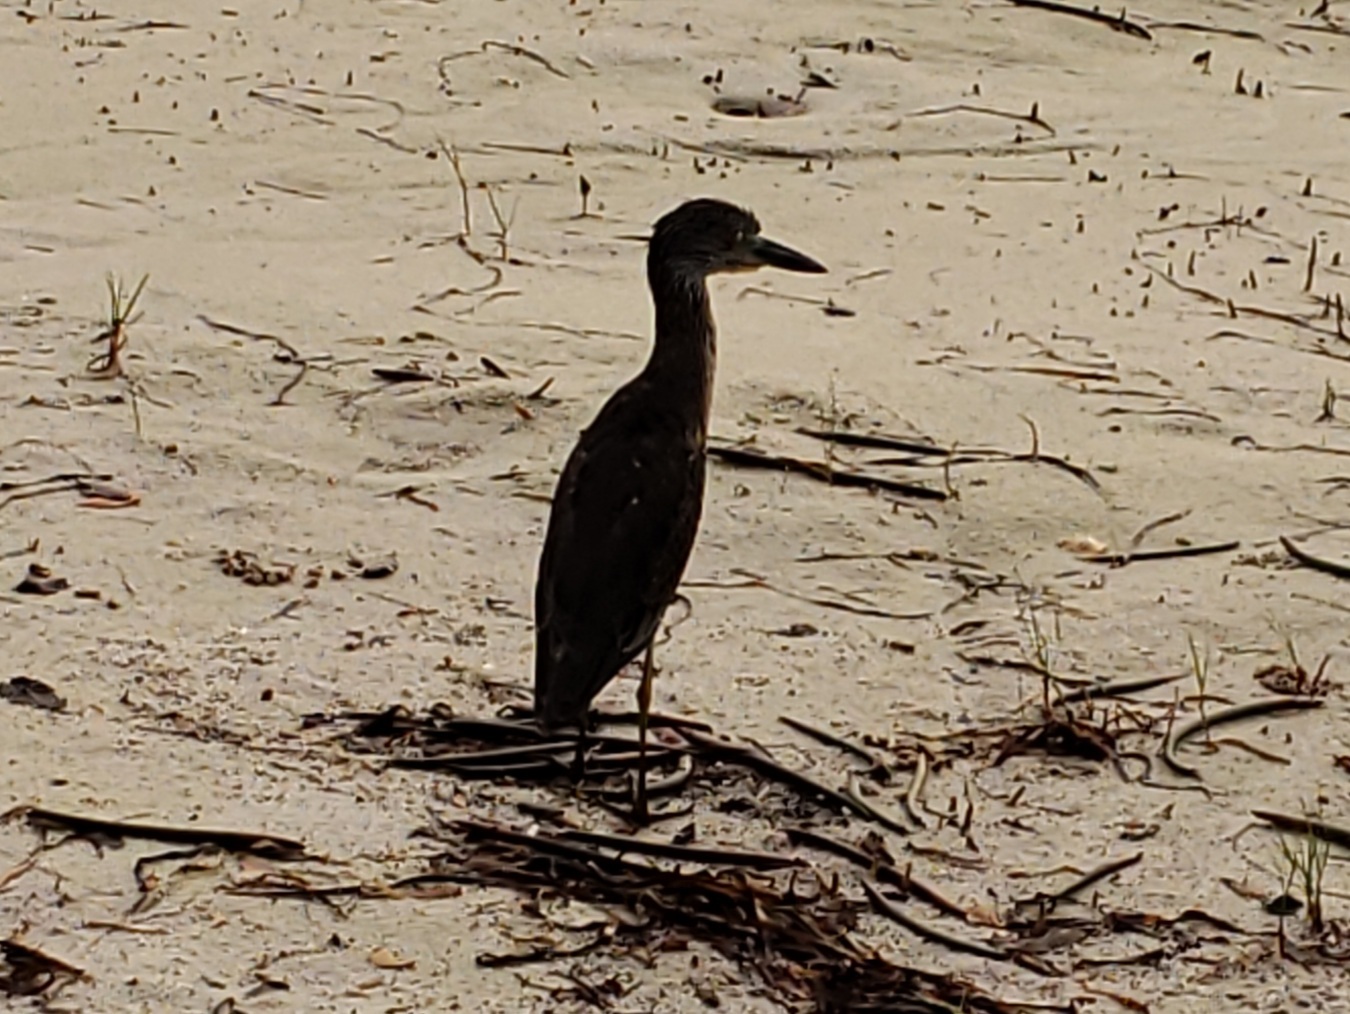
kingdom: Animalia
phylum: Chordata
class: Aves
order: Pelecaniformes
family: Ardeidae
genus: Nyctanassa
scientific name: Nyctanassa violacea
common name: Yellow-crowned night heron
